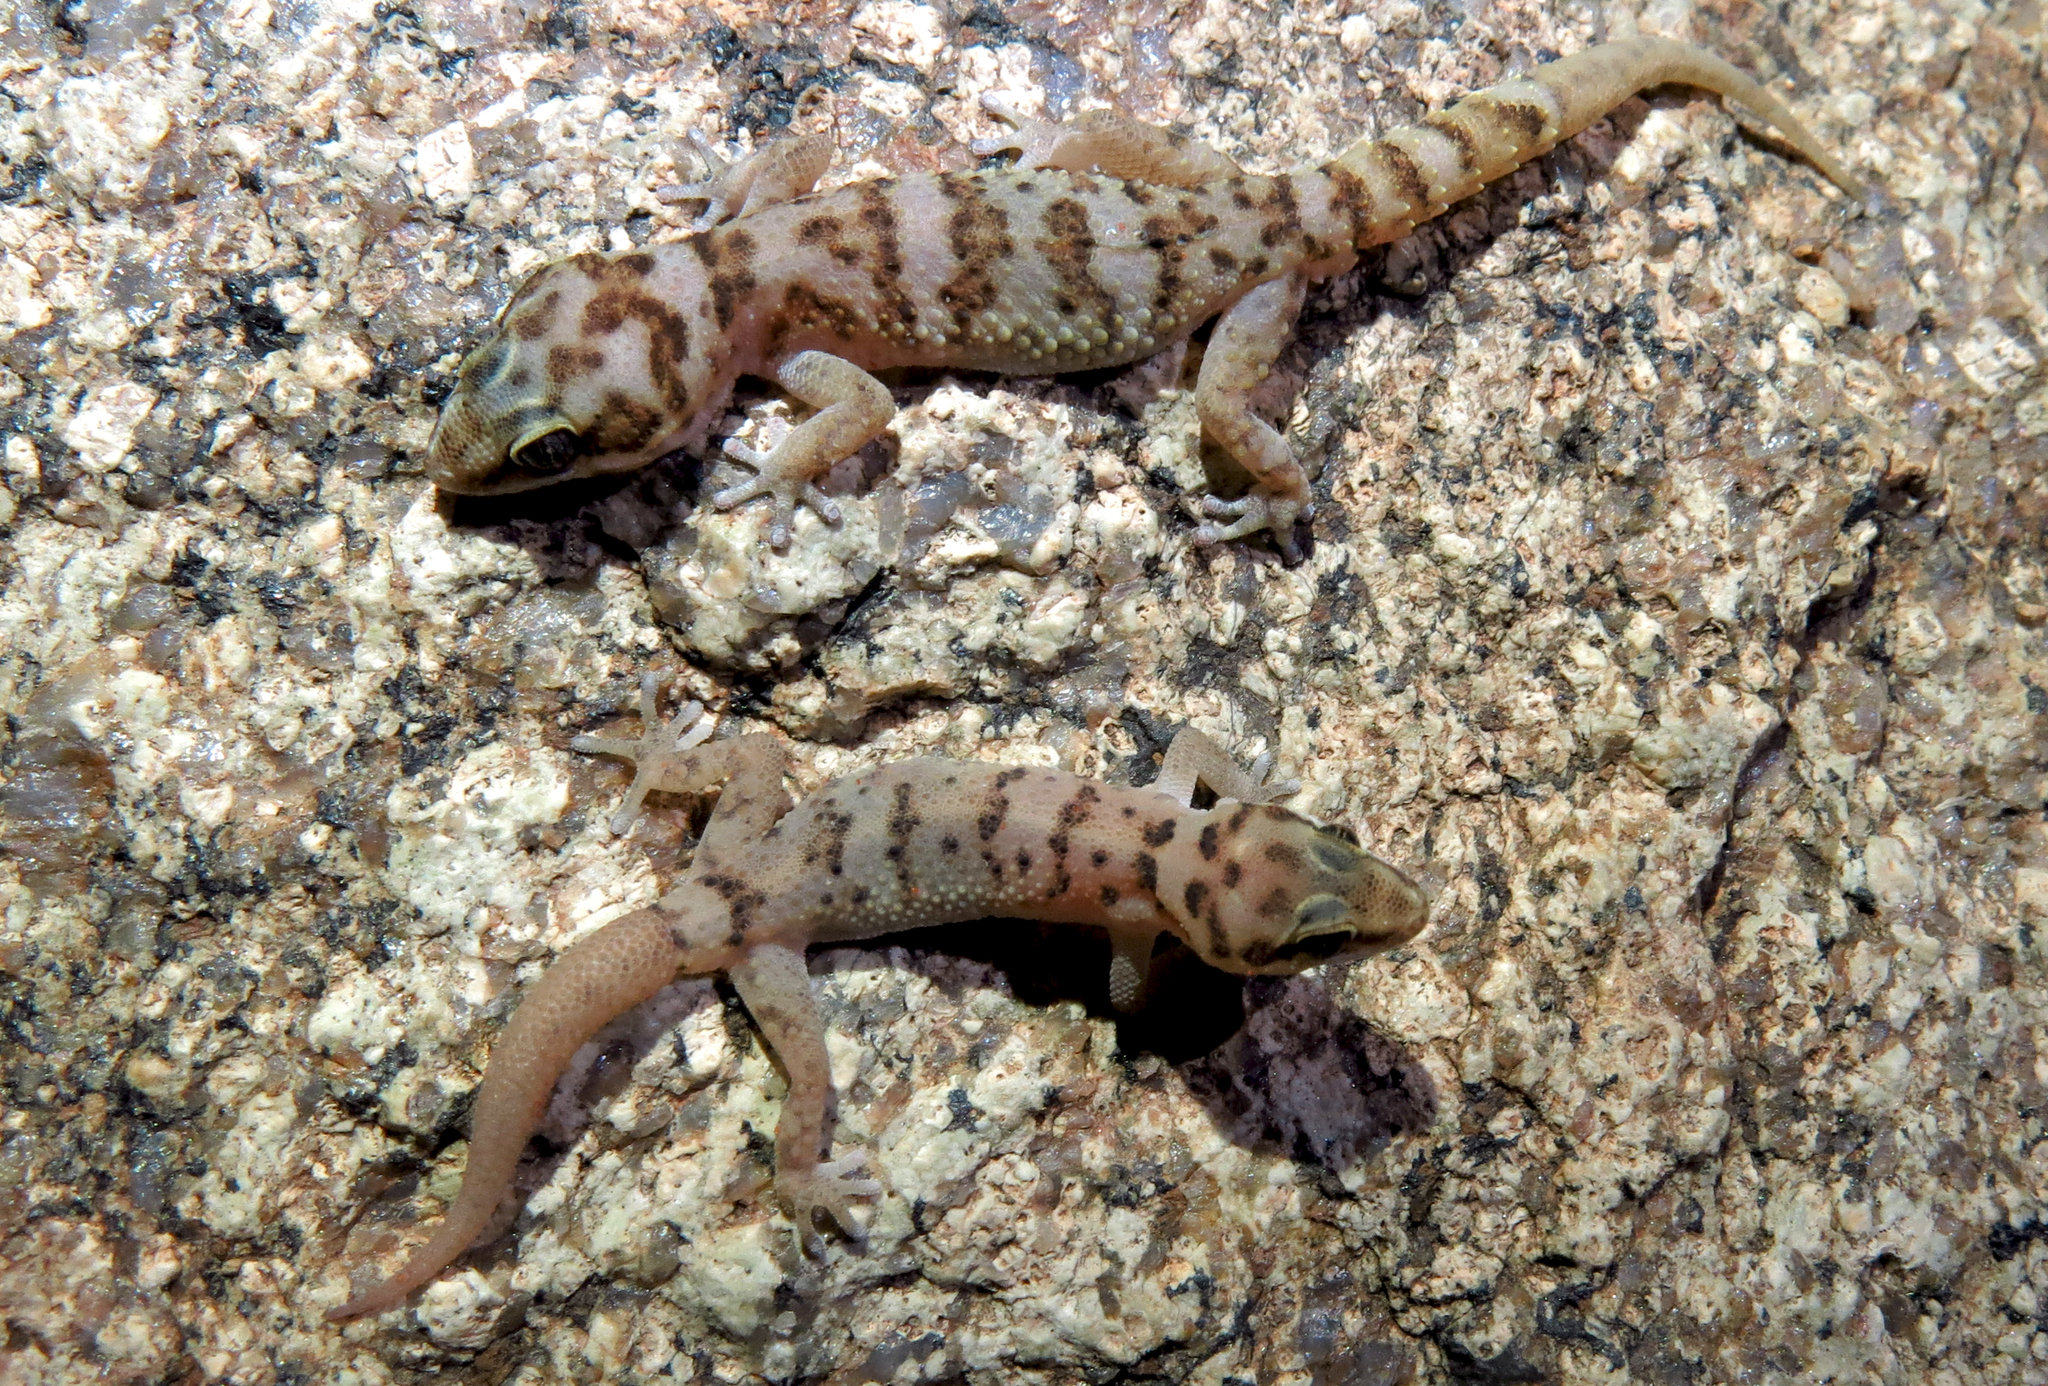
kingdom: Animalia
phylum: Chordata
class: Squamata
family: Gekkonidae
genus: Pachydactylus
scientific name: Pachydactylus weberi
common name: Weber's gecko
